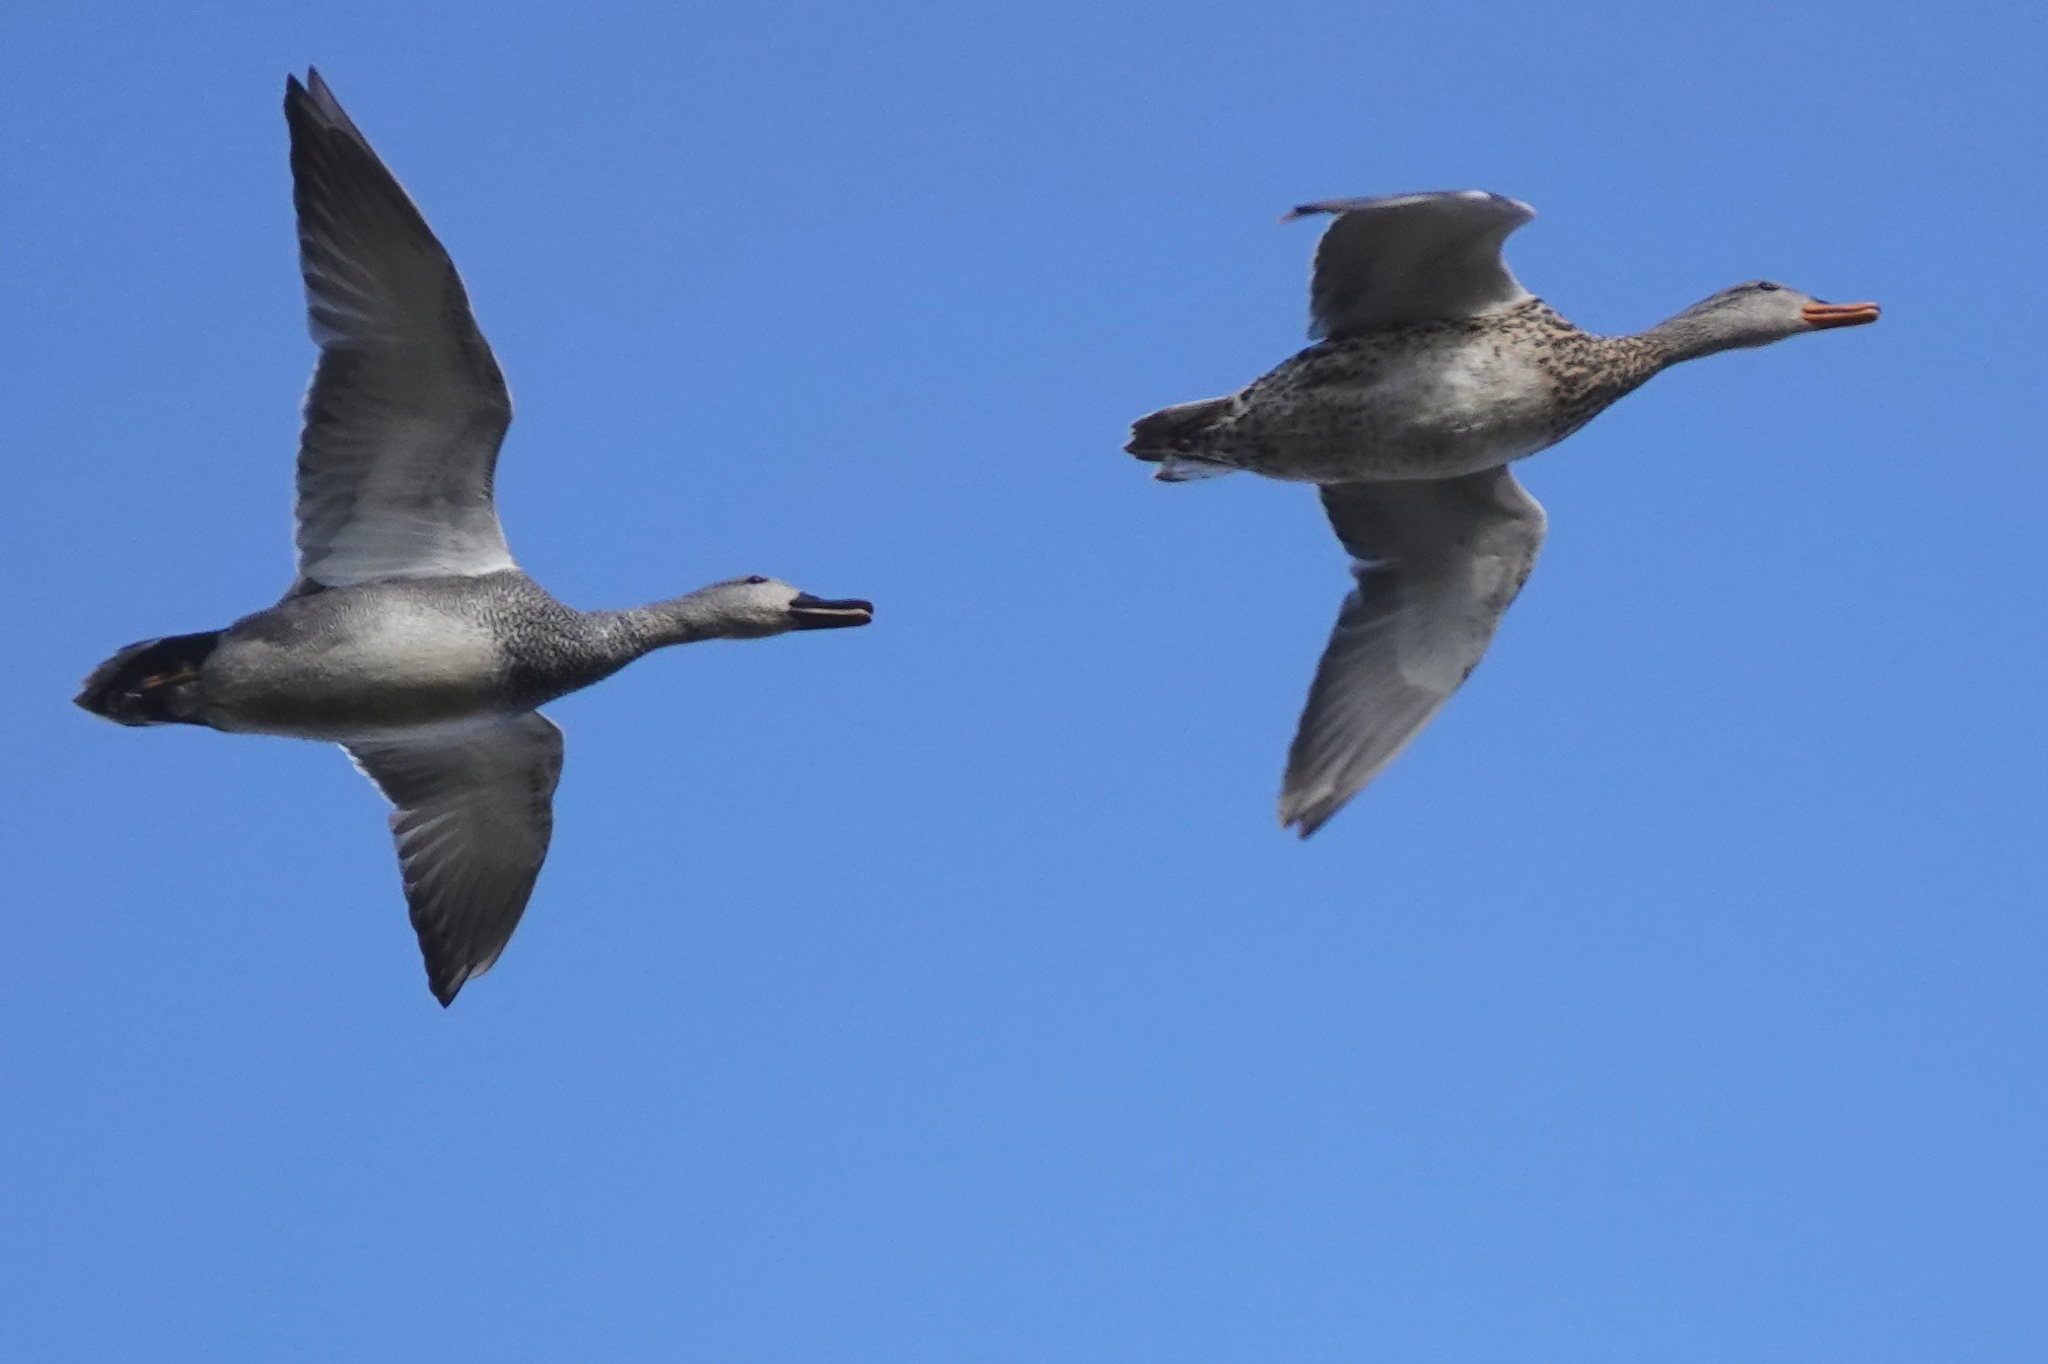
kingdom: Animalia
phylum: Chordata
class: Aves
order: Anseriformes
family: Anatidae
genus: Mareca
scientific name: Mareca strepera
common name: Gadwall
